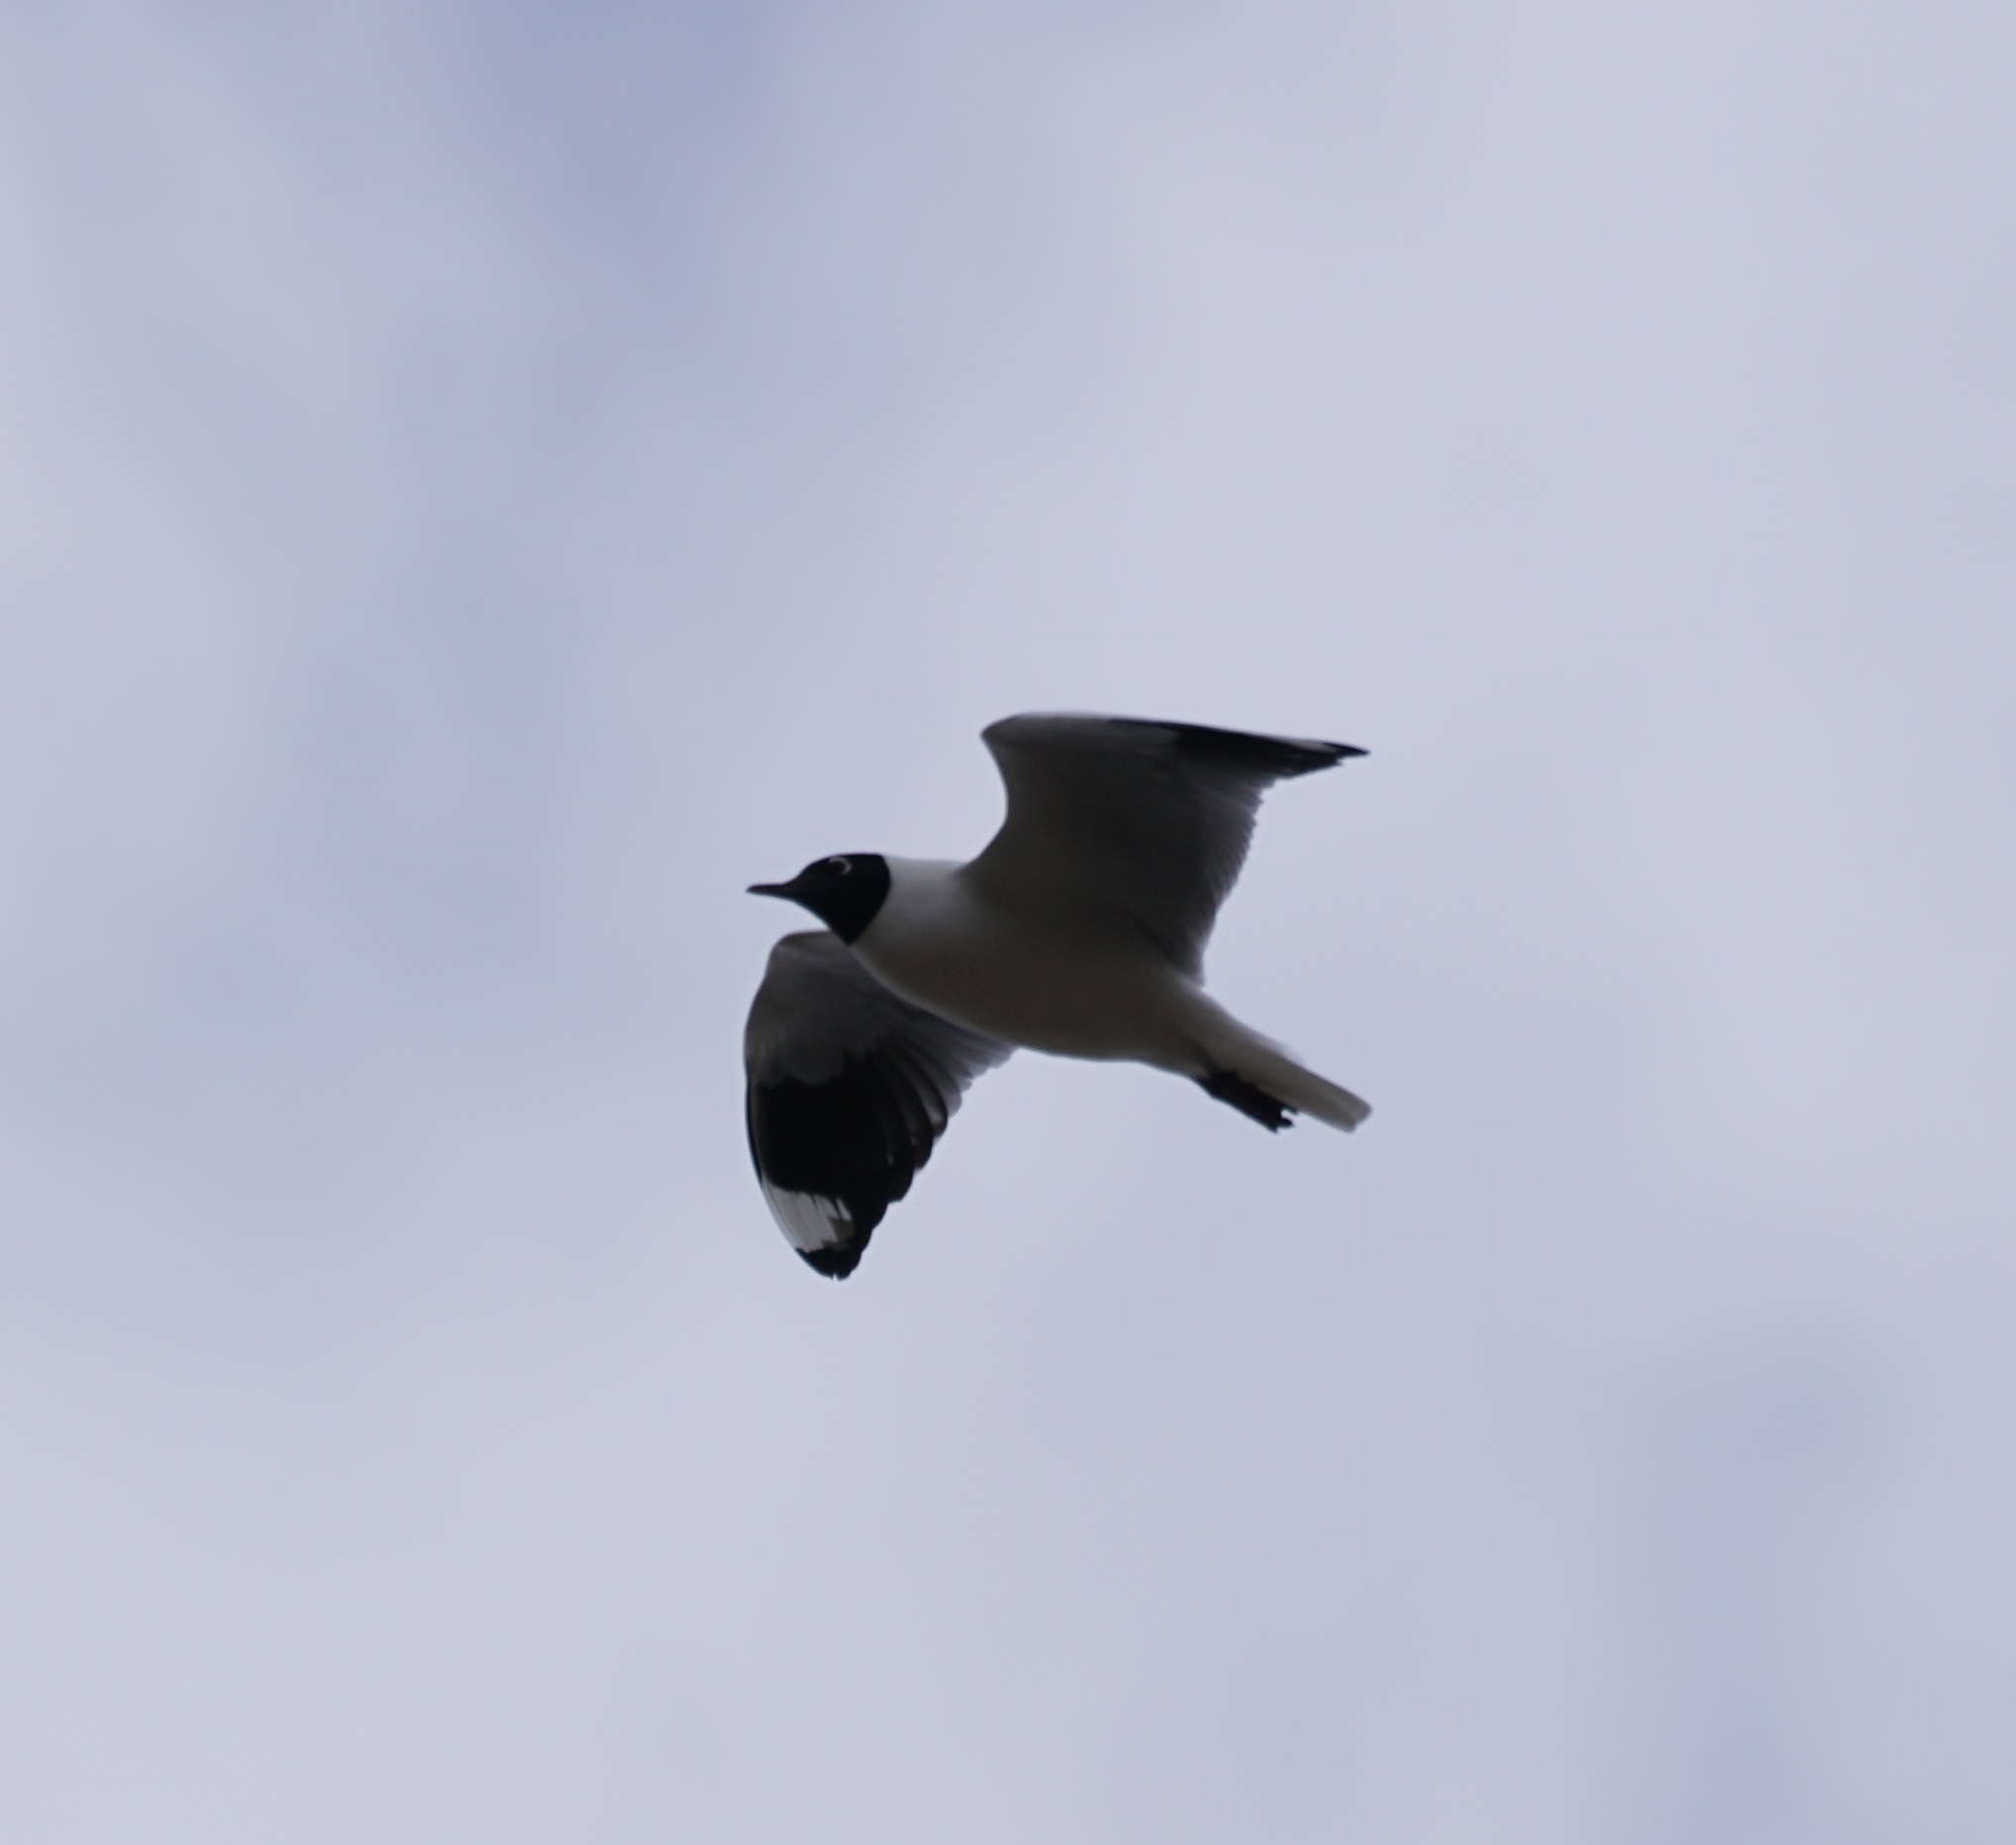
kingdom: Animalia
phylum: Chordata
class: Aves
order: Charadriiformes
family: Laridae
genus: Chroicocephalus
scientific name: Chroicocephalus serranus
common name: Andean gull
